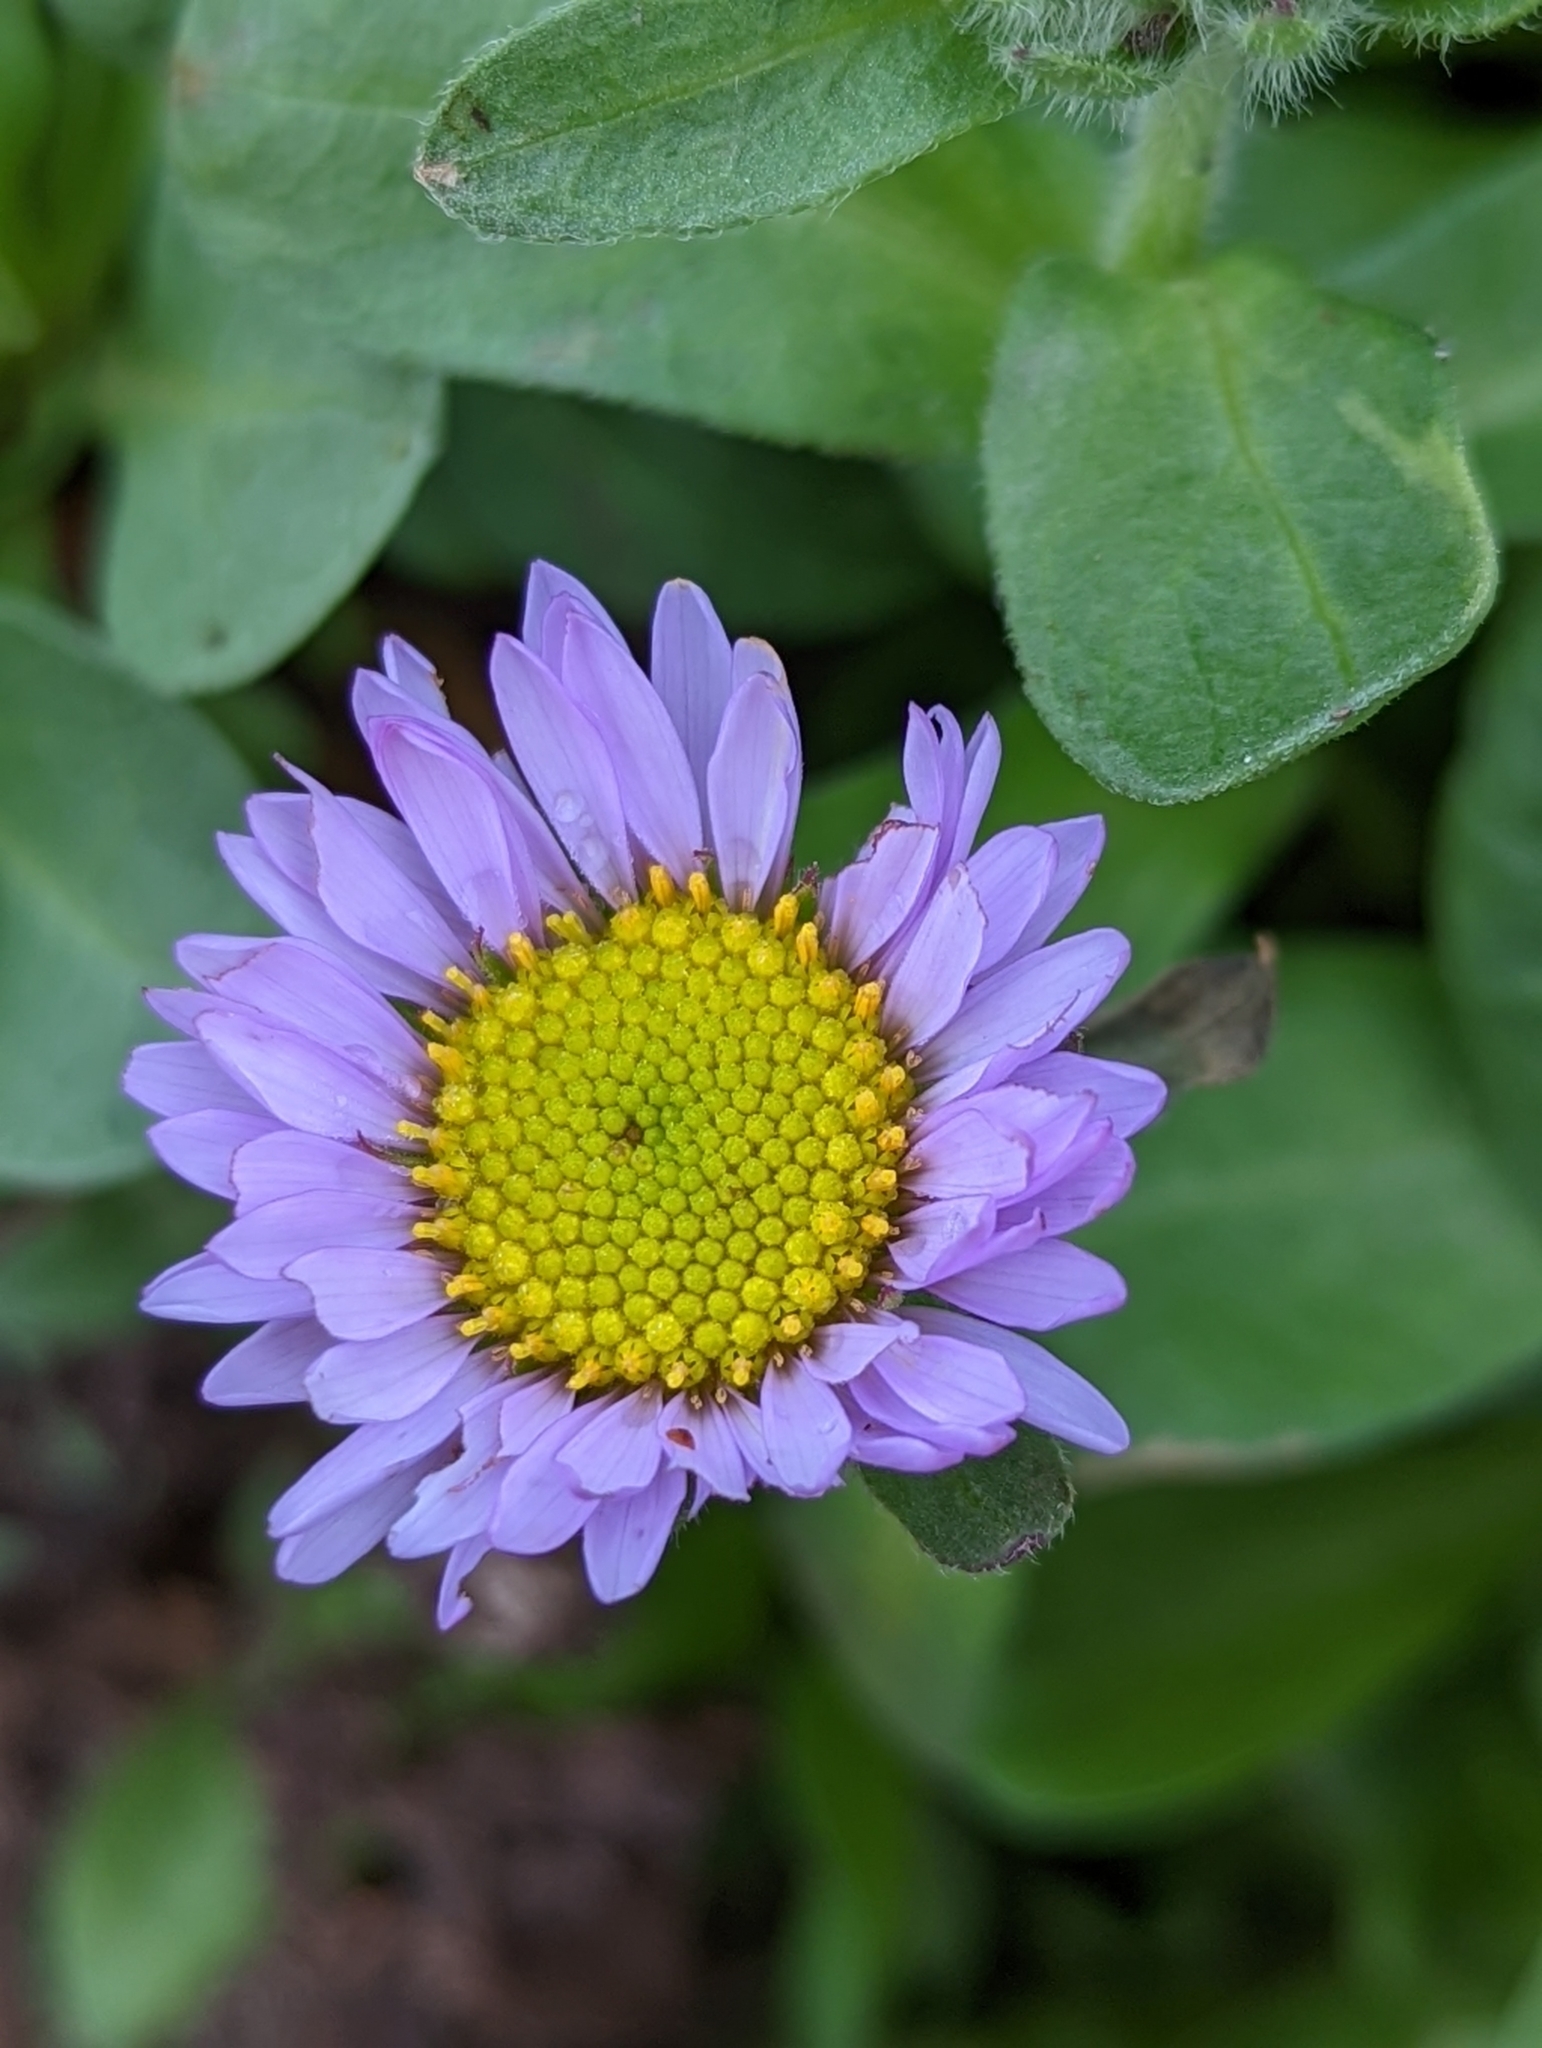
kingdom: Plantae
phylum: Tracheophyta
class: Magnoliopsida
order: Asterales
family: Asteraceae
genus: Erigeron
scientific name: Erigeron glaucus
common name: Seaside daisy
